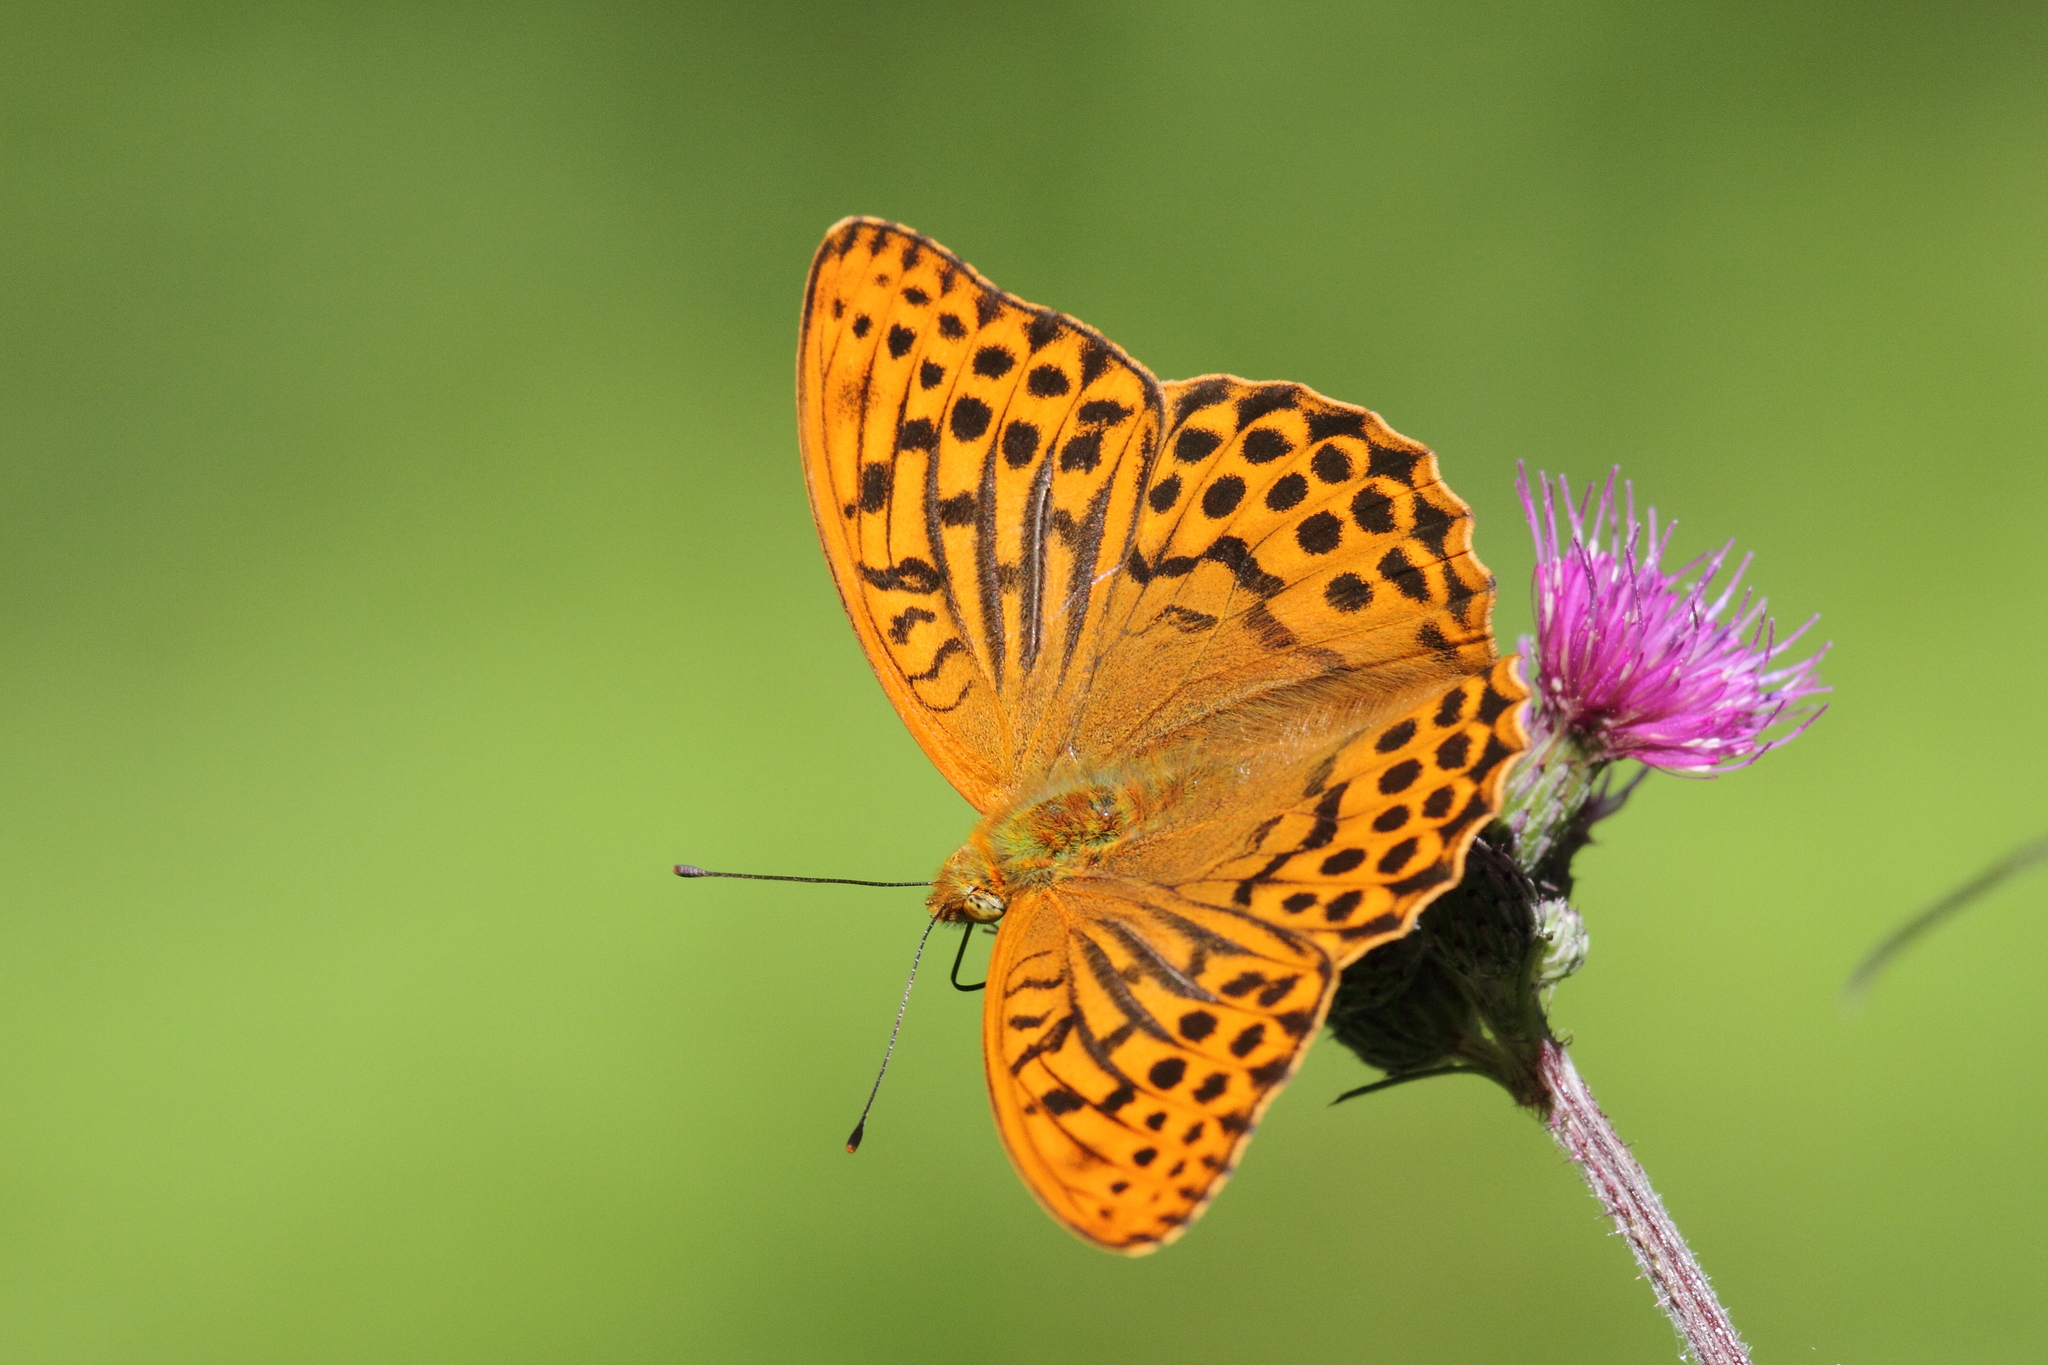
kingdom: Animalia
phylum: Arthropoda
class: Insecta
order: Lepidoptera
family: Nymphalidae
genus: Argynnis
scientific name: Argynnis paphia
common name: Silver-washed fritillary
